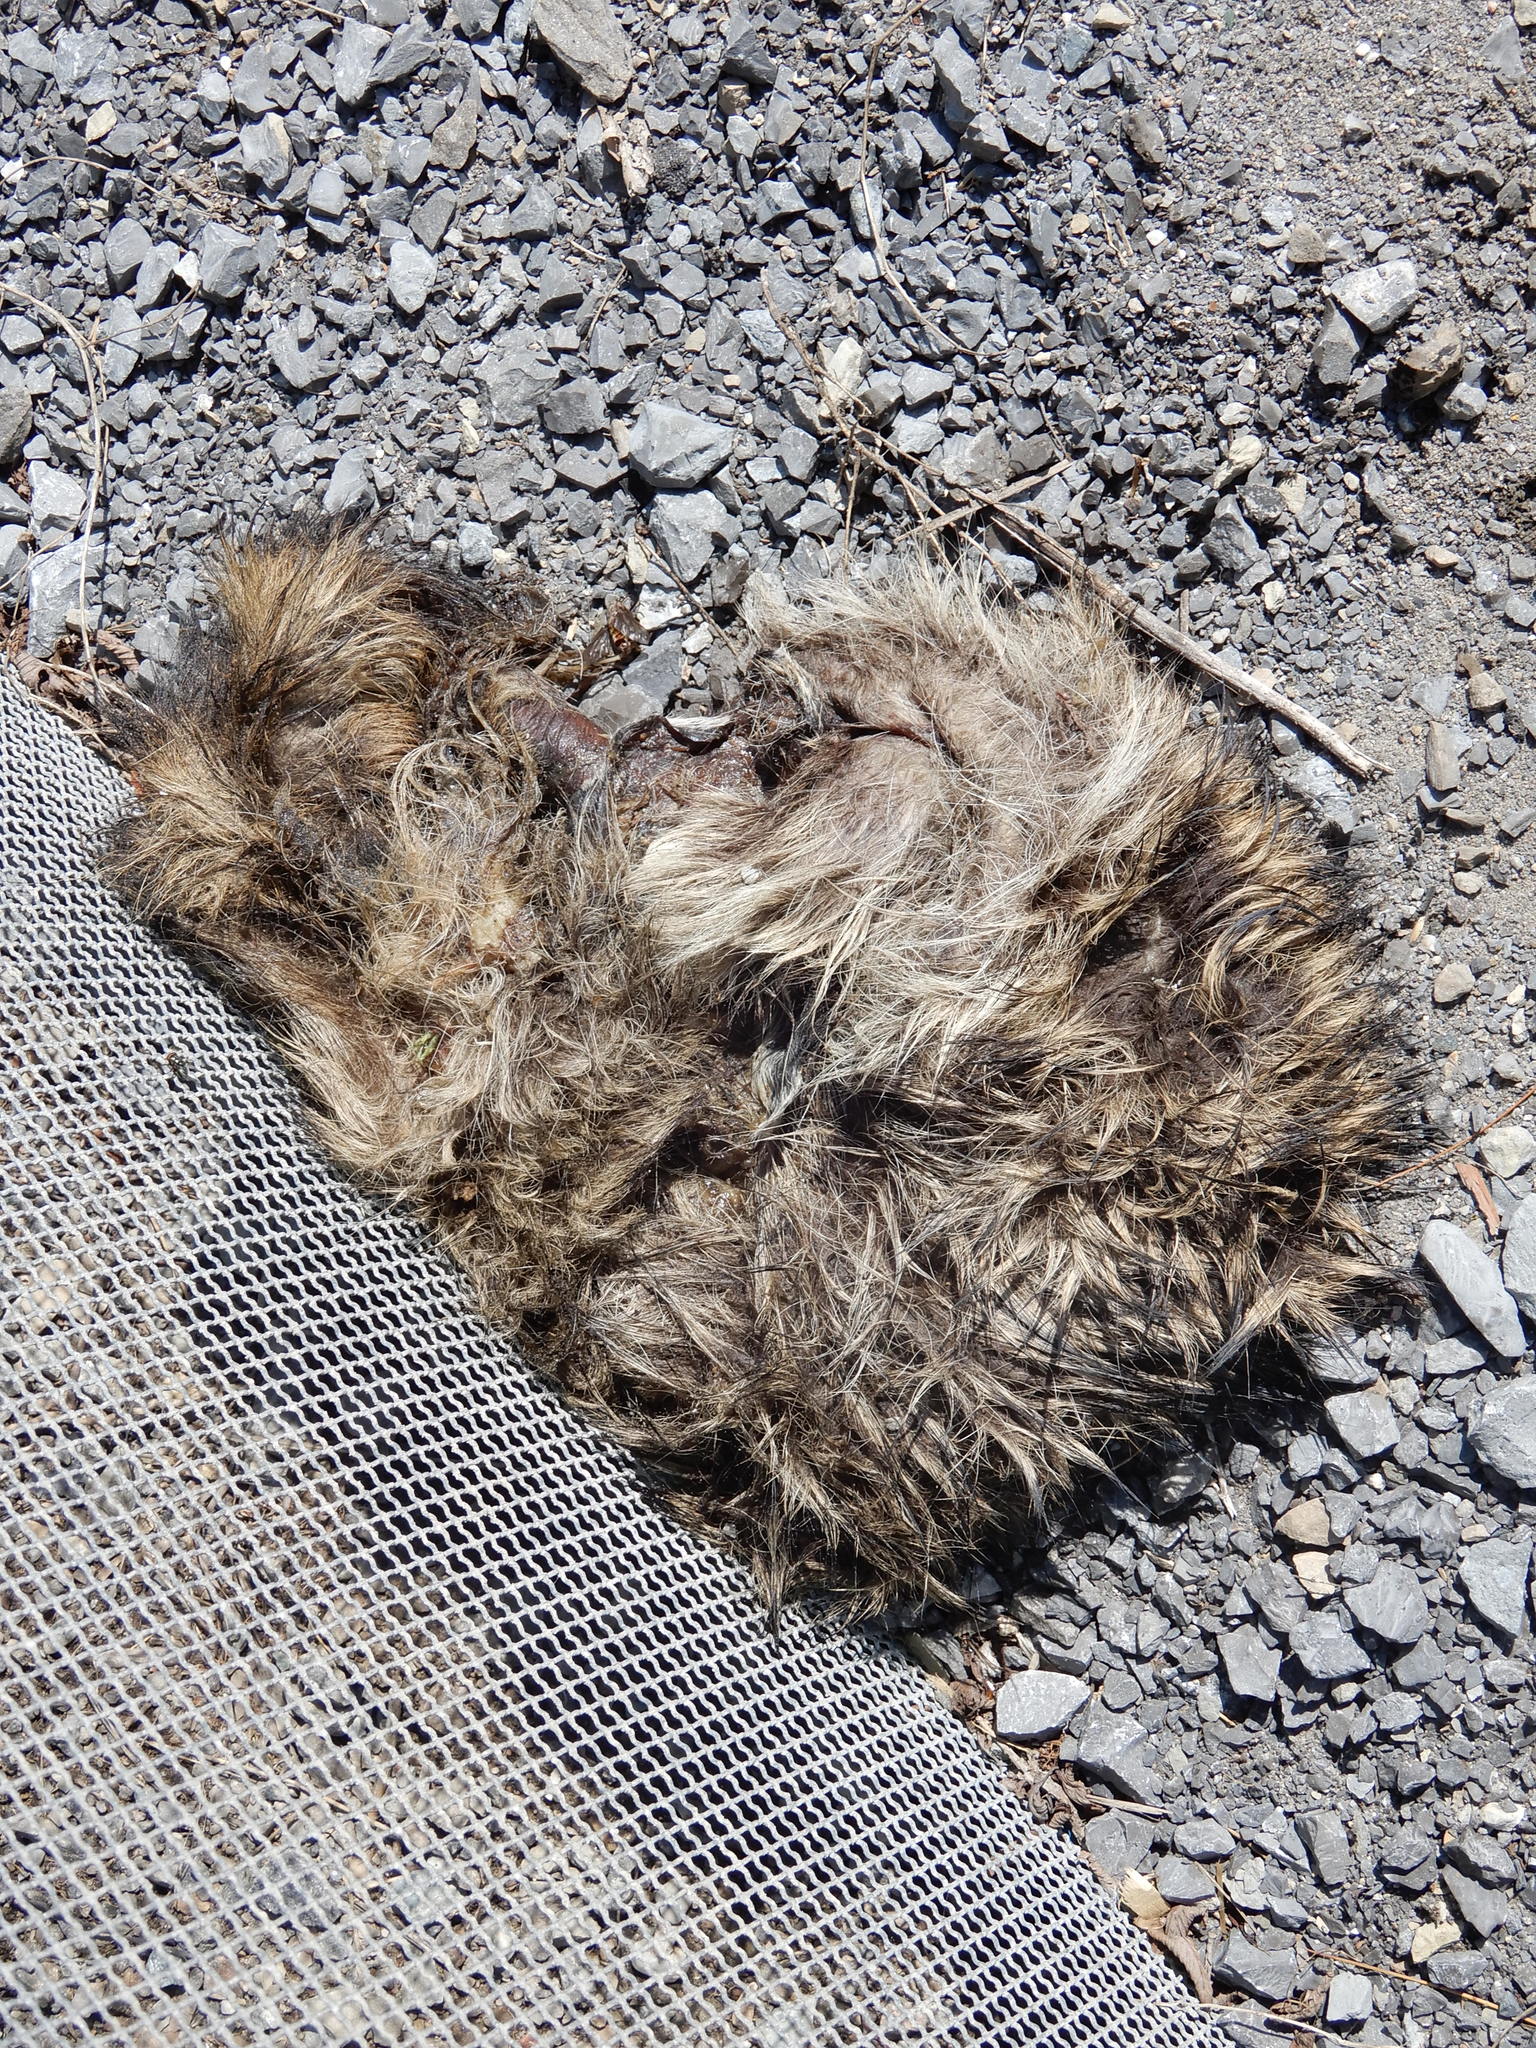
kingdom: Animalia
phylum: Chordata
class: Mammalia
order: Carnivora
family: Procyonidae
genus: Procyon
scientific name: Procyon lotor
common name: Raccoon
